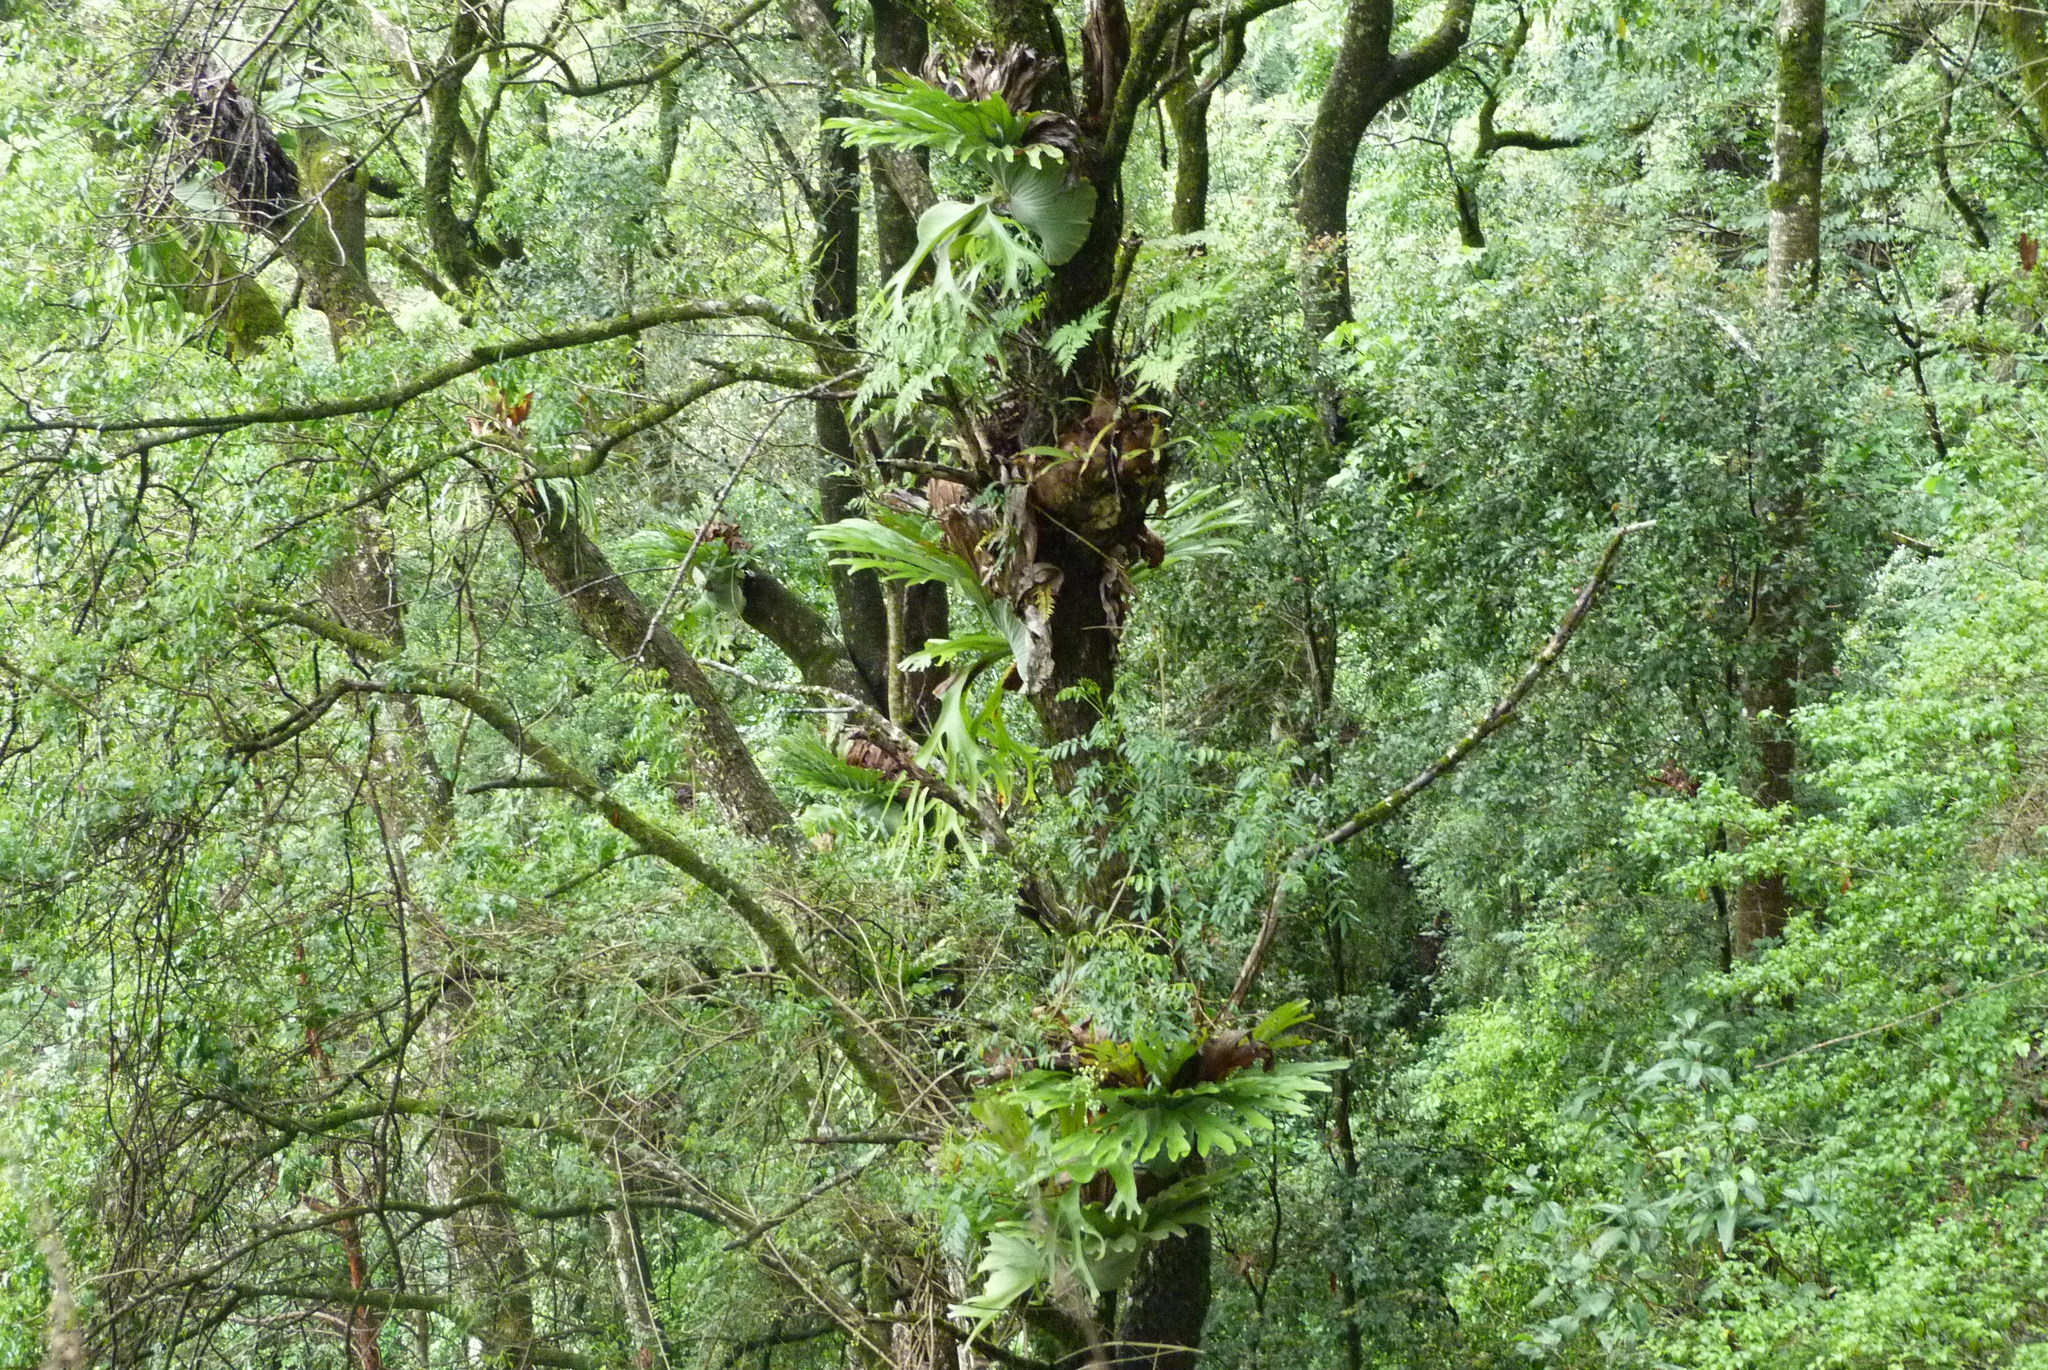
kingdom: Plantae
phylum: Tracheophyta
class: Polypodiopsida
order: Polypodiales
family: Polypodiaceae
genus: Platycerium
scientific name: Platycerium superbum
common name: Staghorn fern
